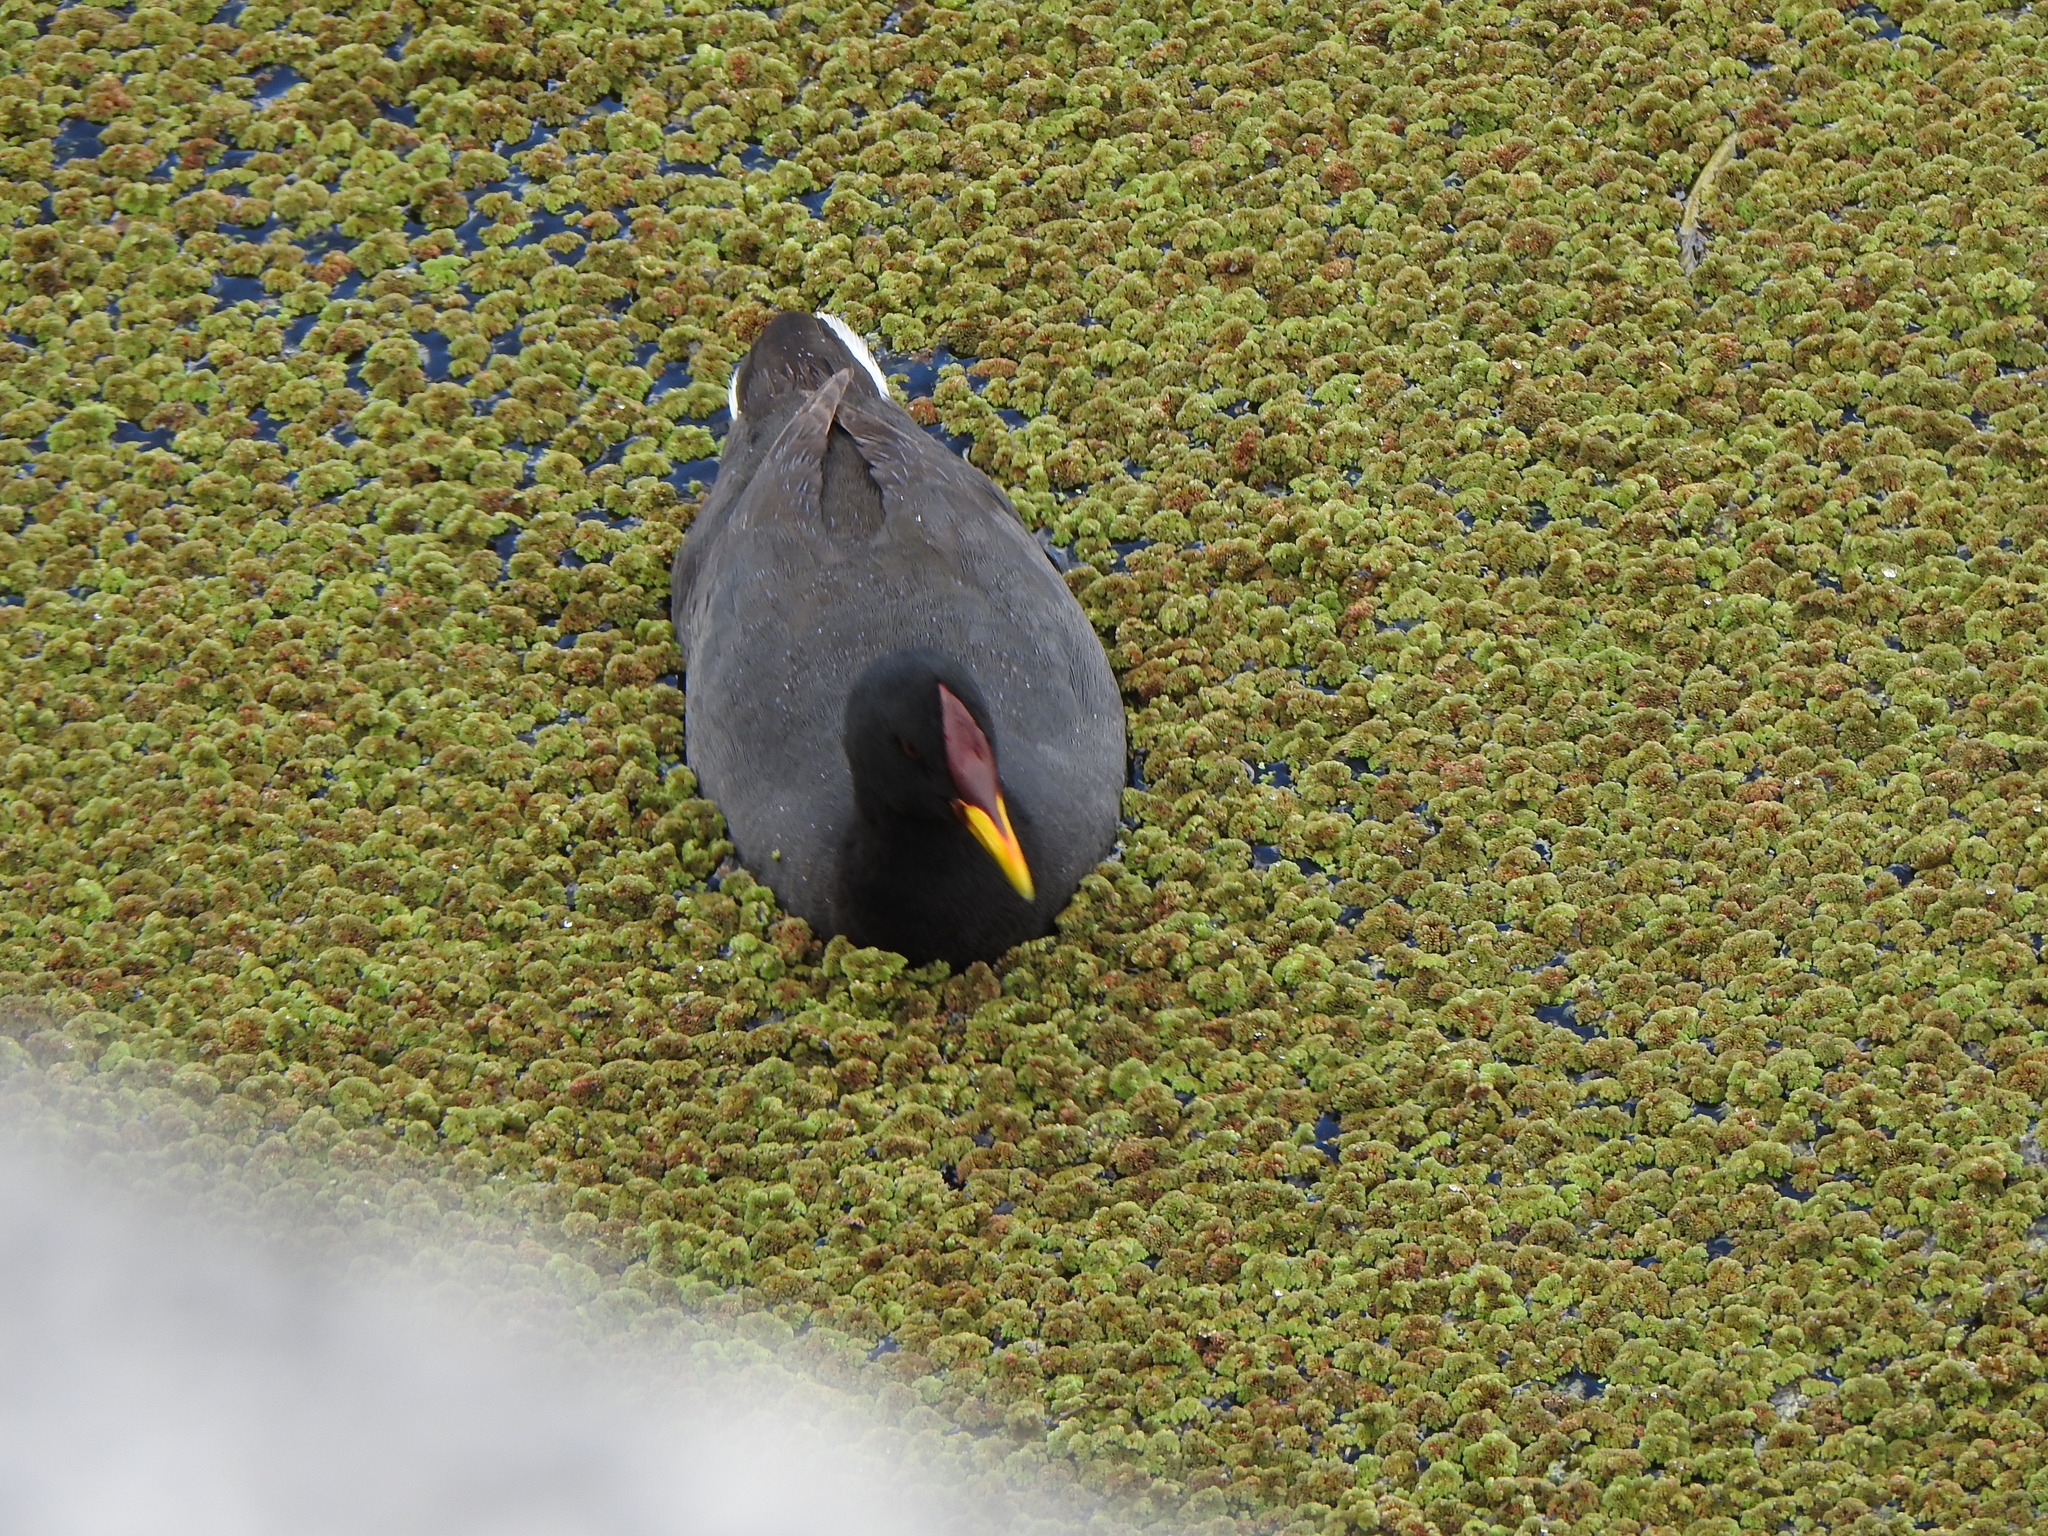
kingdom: Animalia
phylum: Chordata
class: Aves
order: Gruiformes
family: Rallidae
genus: Fulica
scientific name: Fulica rufifrons
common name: Red-fronted coot
